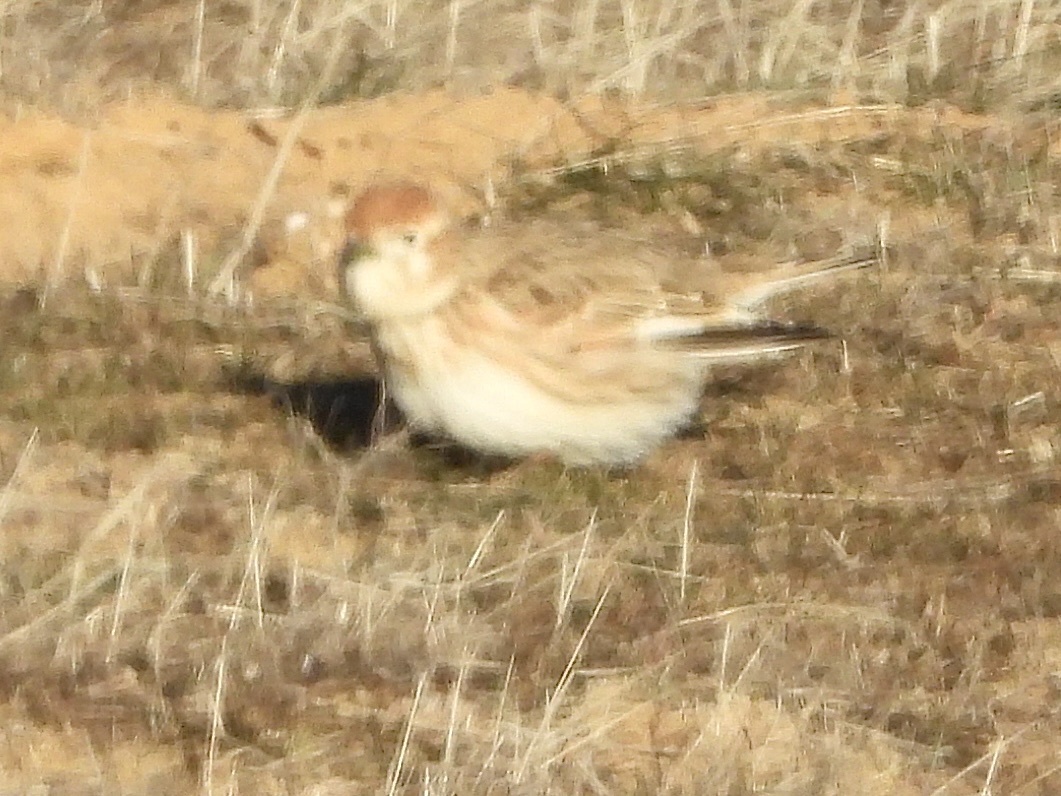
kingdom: Animalia
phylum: Chordata
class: Aves
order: Passeriformes
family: Alaudidae
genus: Melanocorypha
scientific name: Melanocorypha leucoptera
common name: White-winged lark
